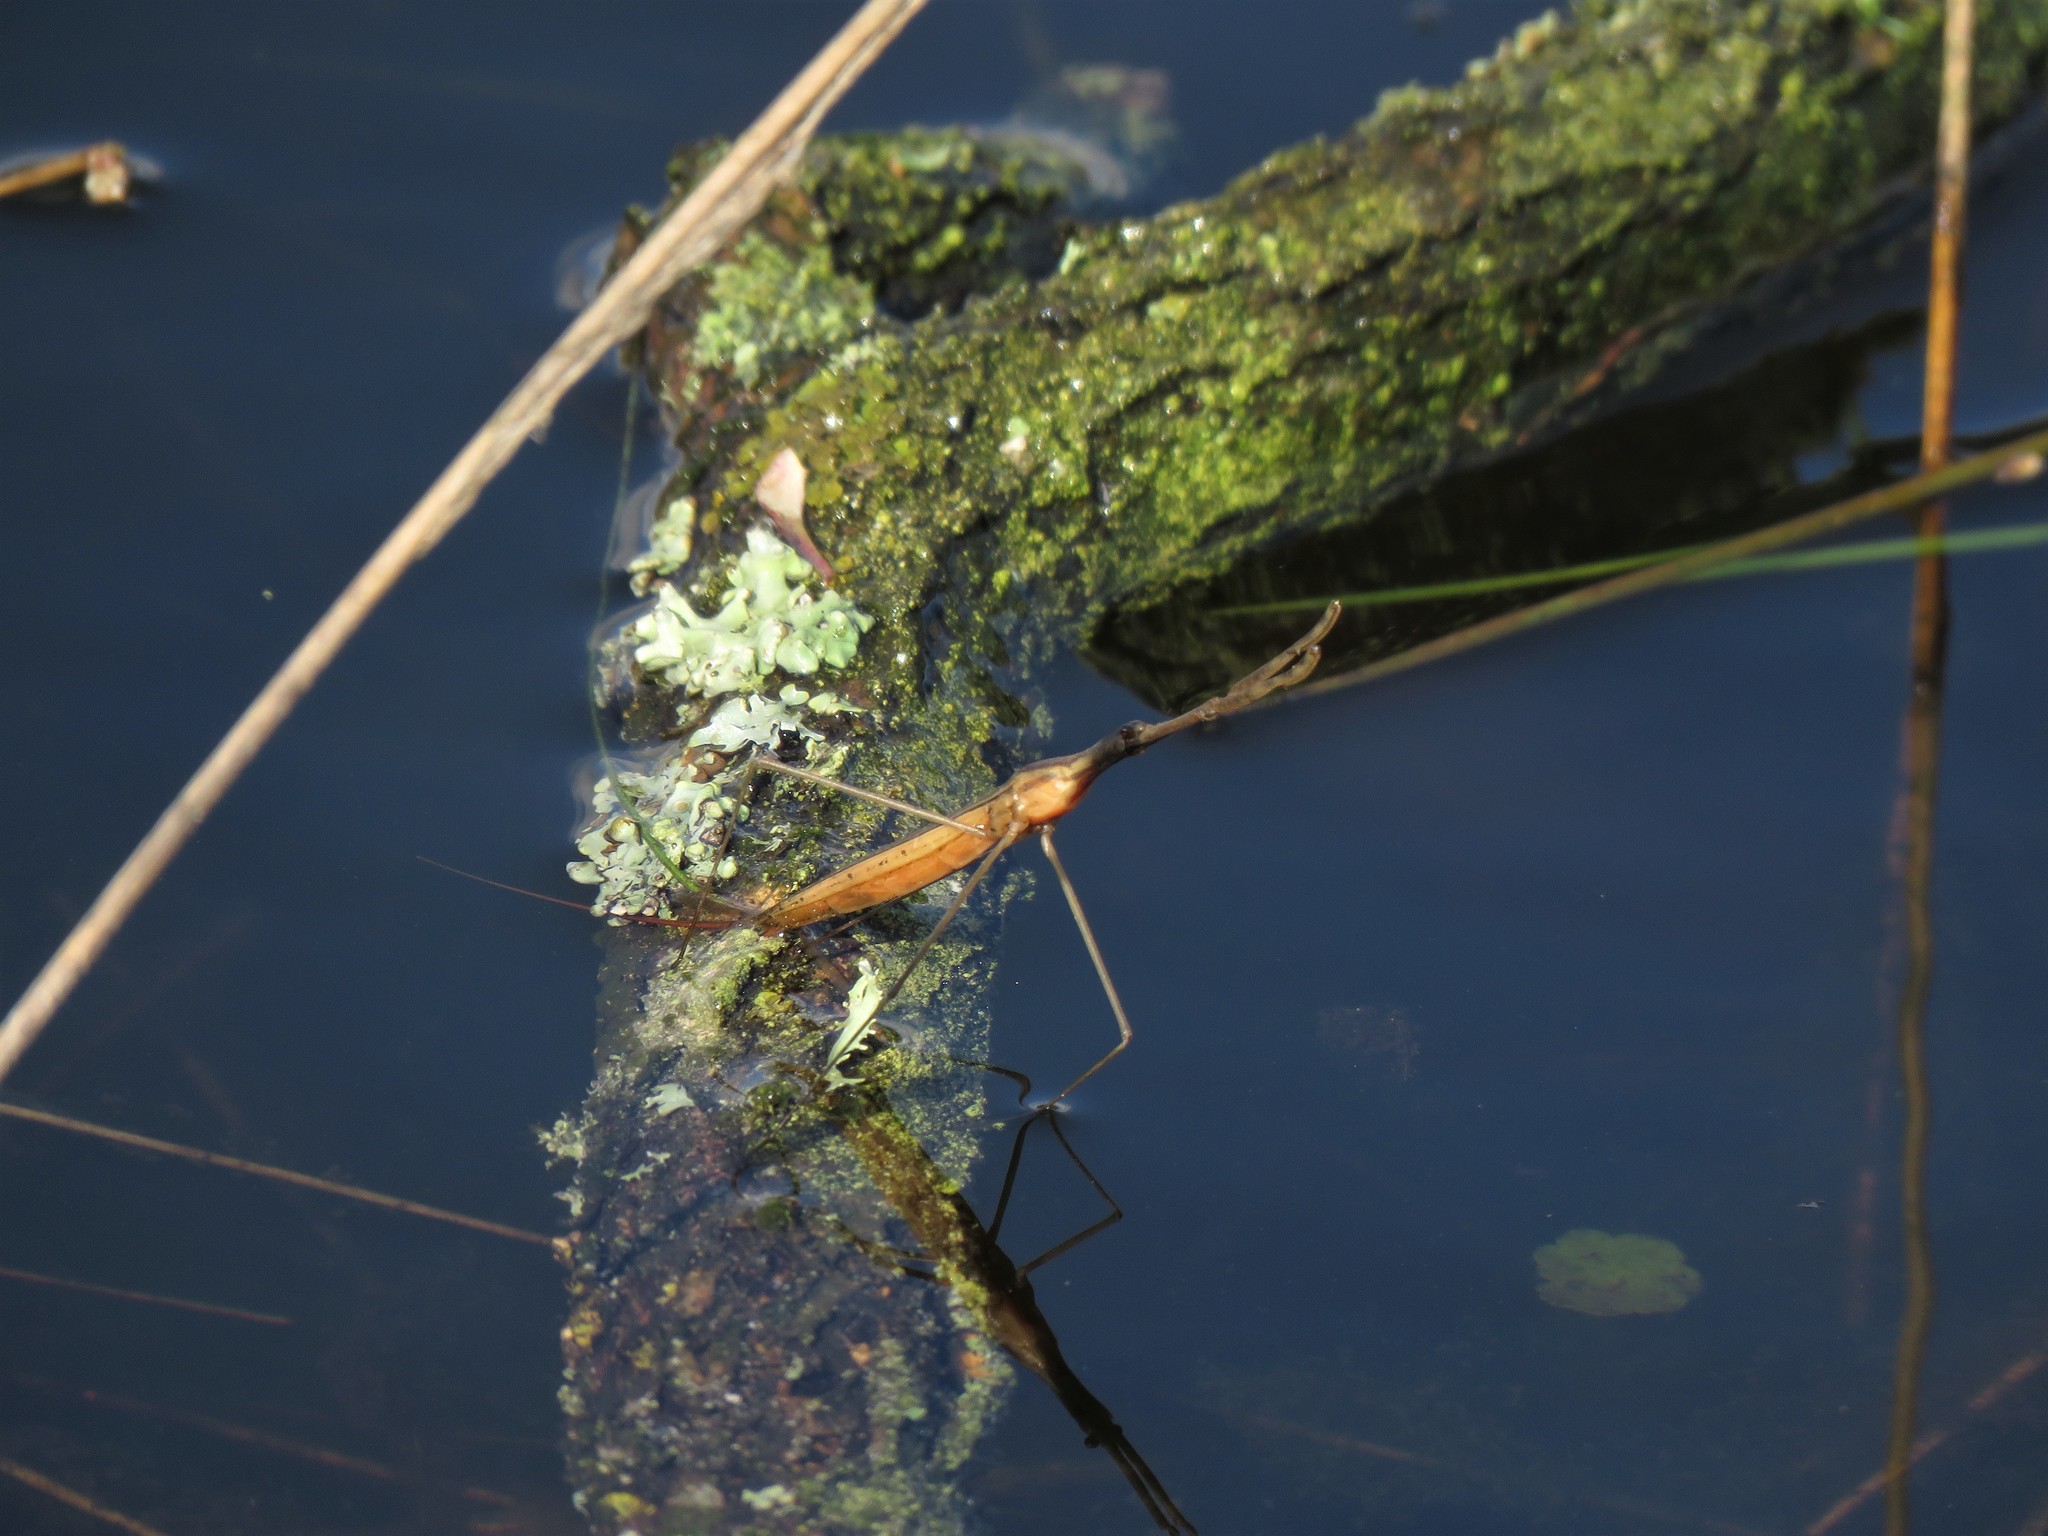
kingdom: Animalia
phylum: Arthropoda
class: Insecta
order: Hemiptera
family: Nepidae
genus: Ranatra
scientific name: Ranatra linearis
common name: Water stick insect
